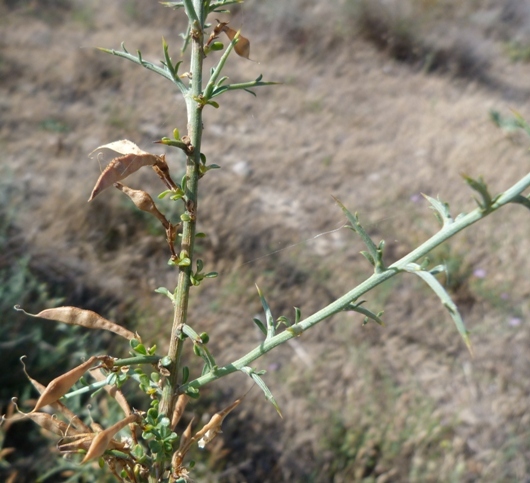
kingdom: Plantae
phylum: Tracheophyta
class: Magnoliopsida
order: Fabales
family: Fabaceae
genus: Genista
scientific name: Genista scorpius
